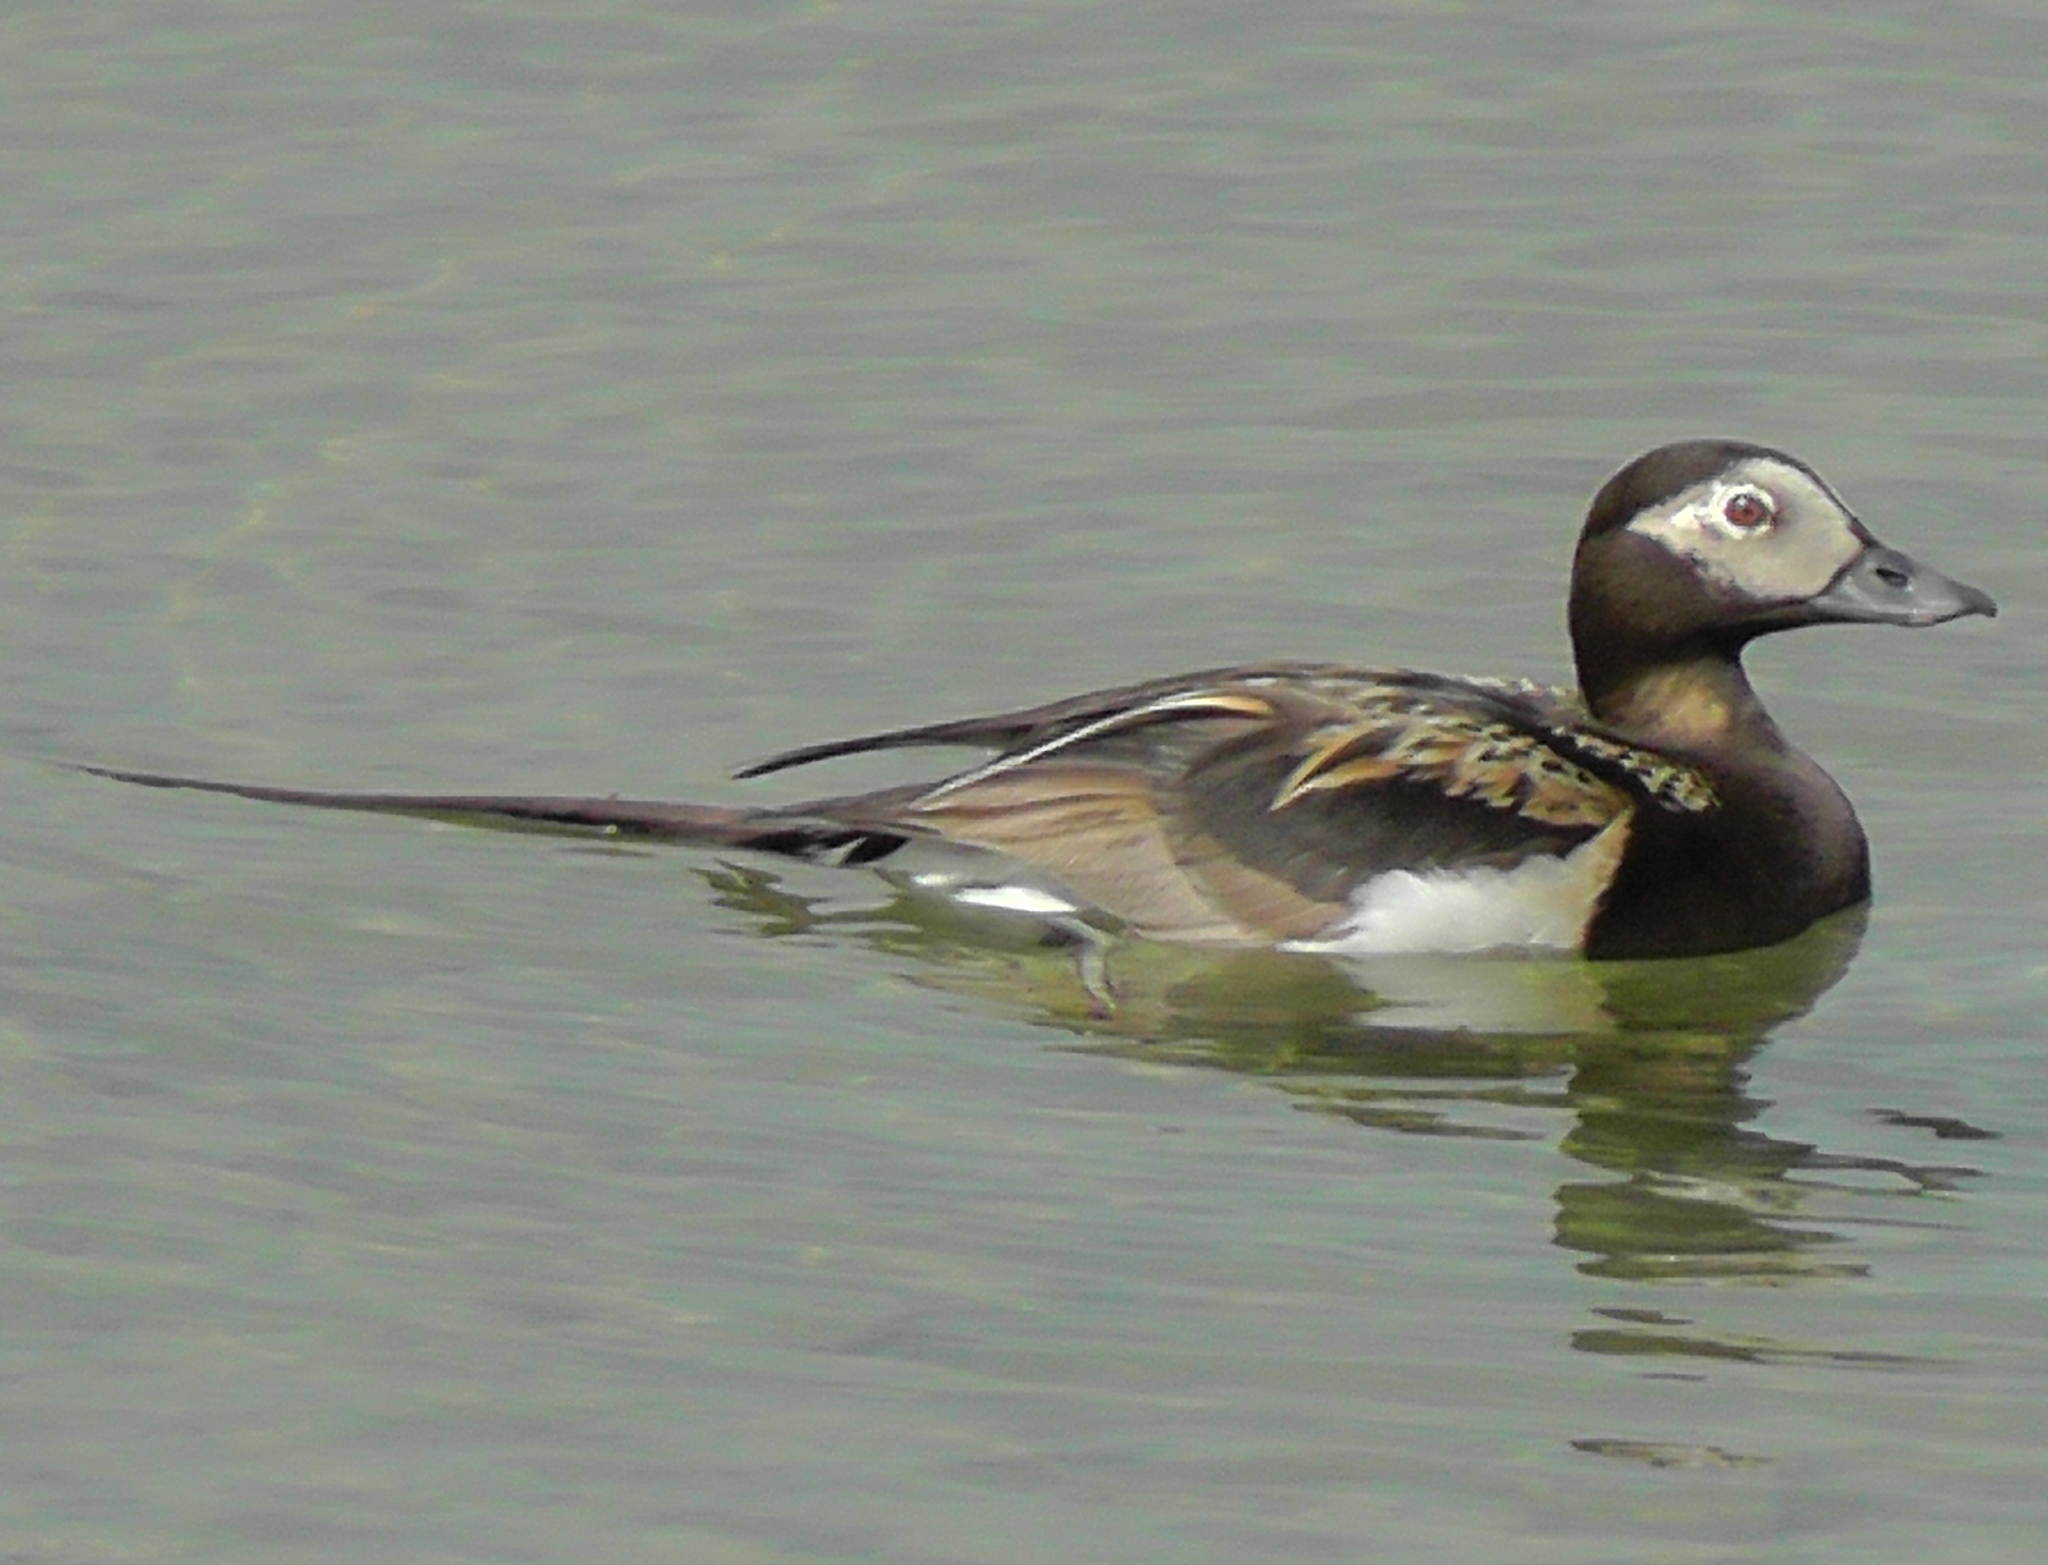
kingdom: Animalia
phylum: Chordata
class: Aves
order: Anseriformes
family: Anatidae
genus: Clangula
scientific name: Clangula hyemalis
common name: Long-tailed duck
